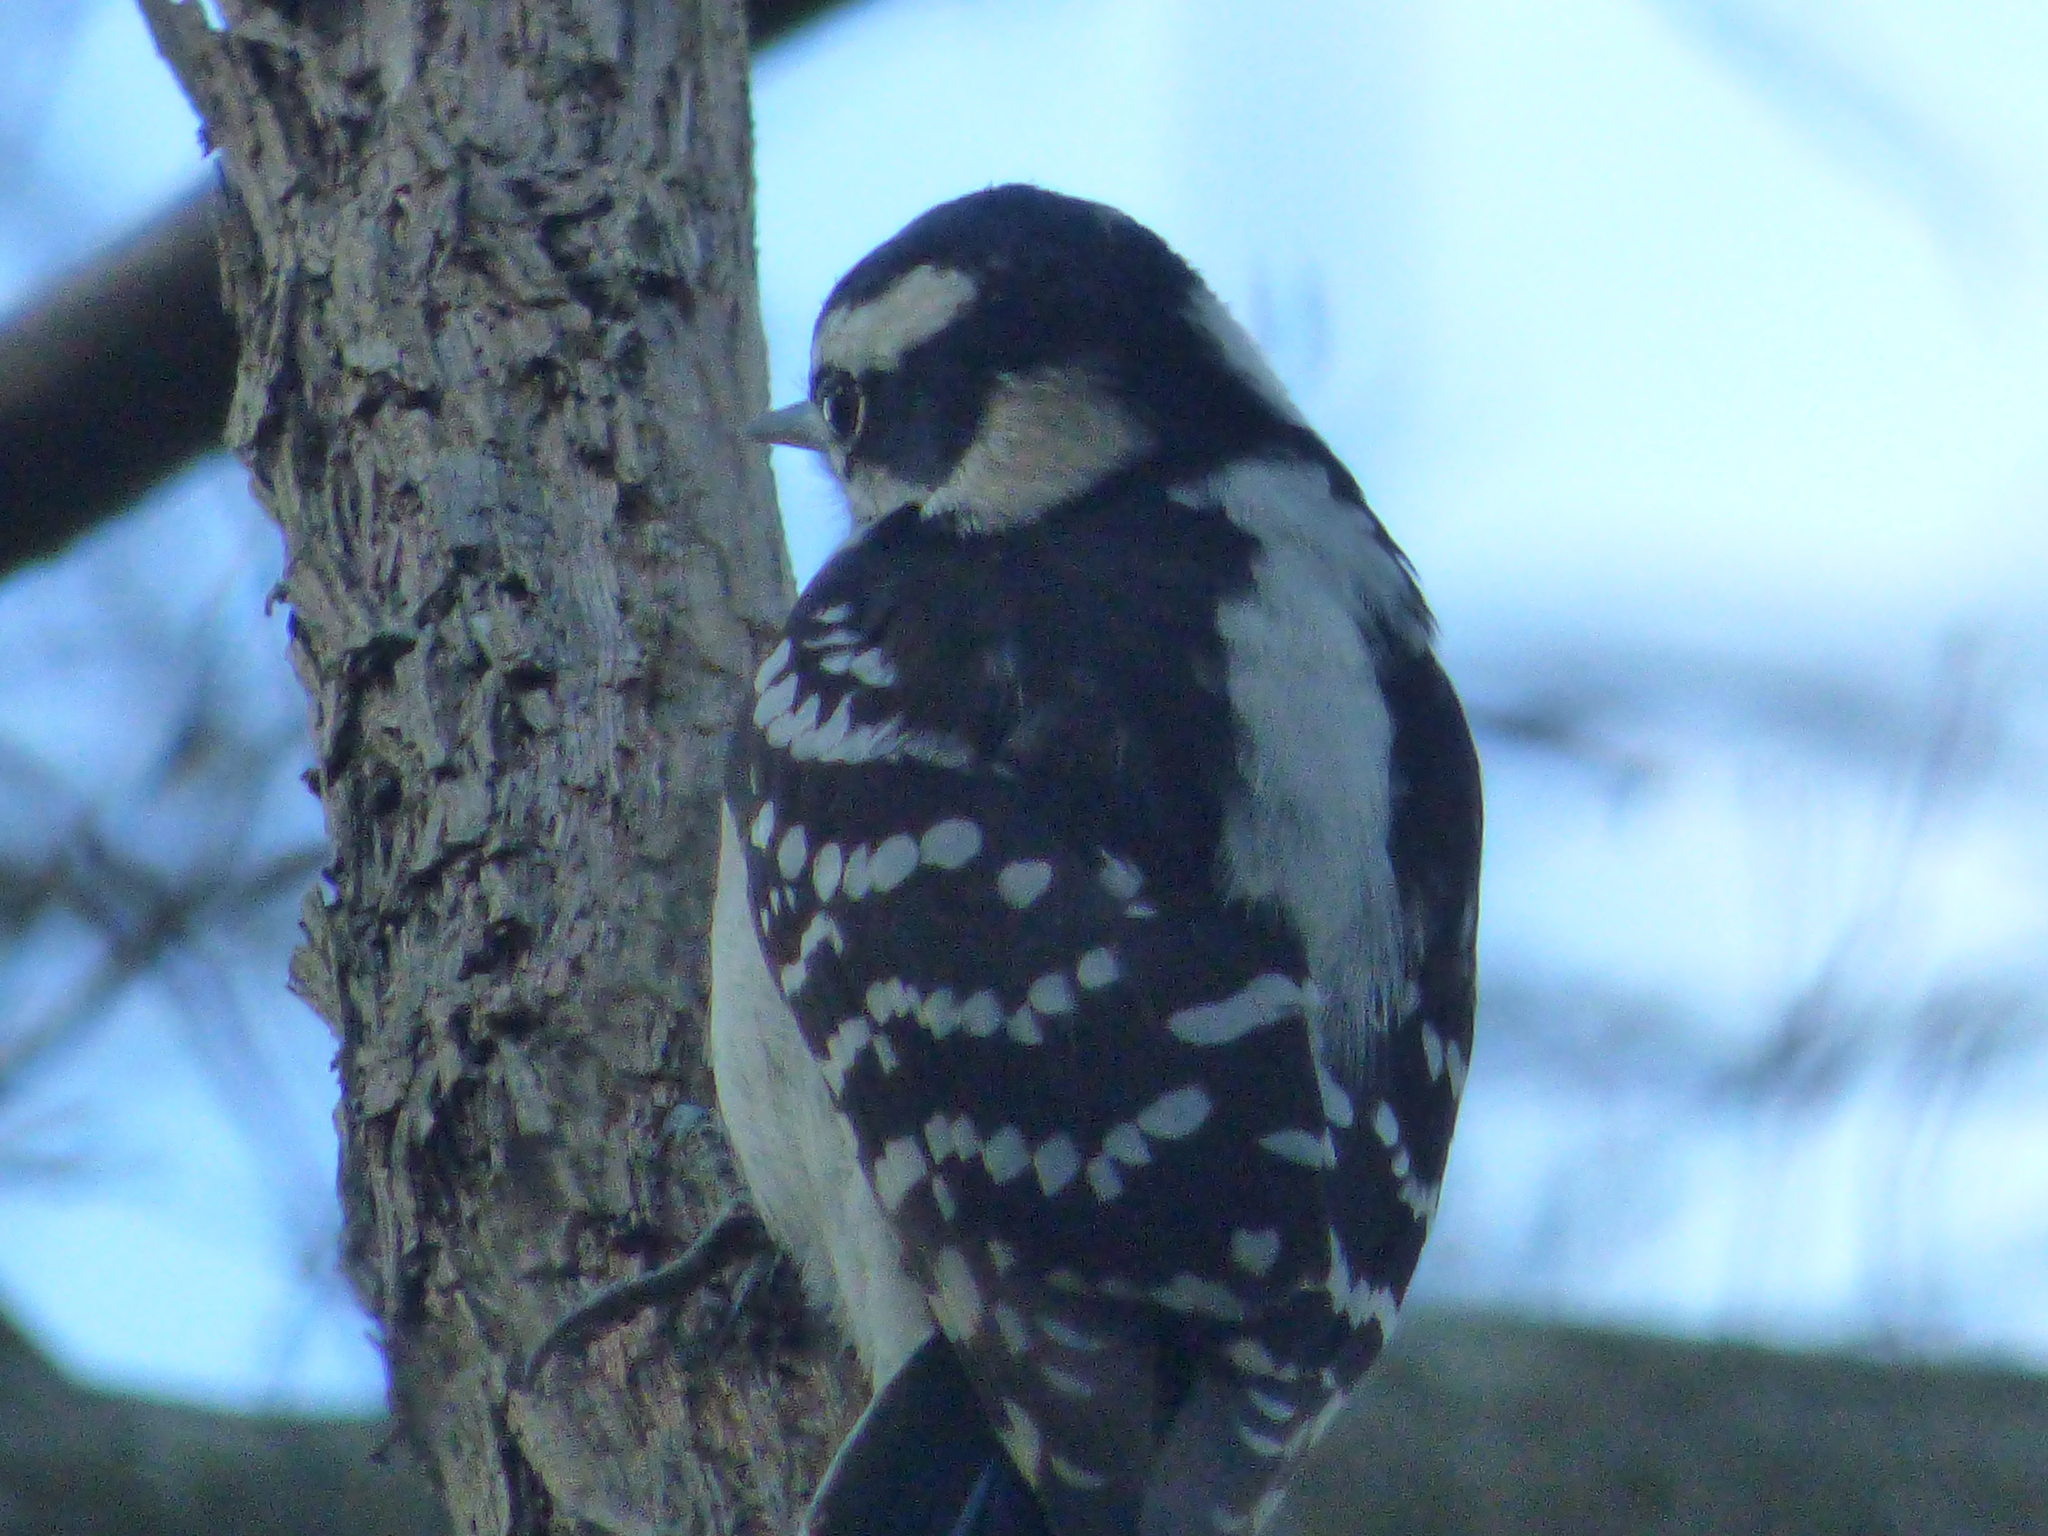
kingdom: Animalia
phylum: Chordata
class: Aves
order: Piciformes
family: Picidae
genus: Dryobates
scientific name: Dryobates pubescens
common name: Downy woodpecker
